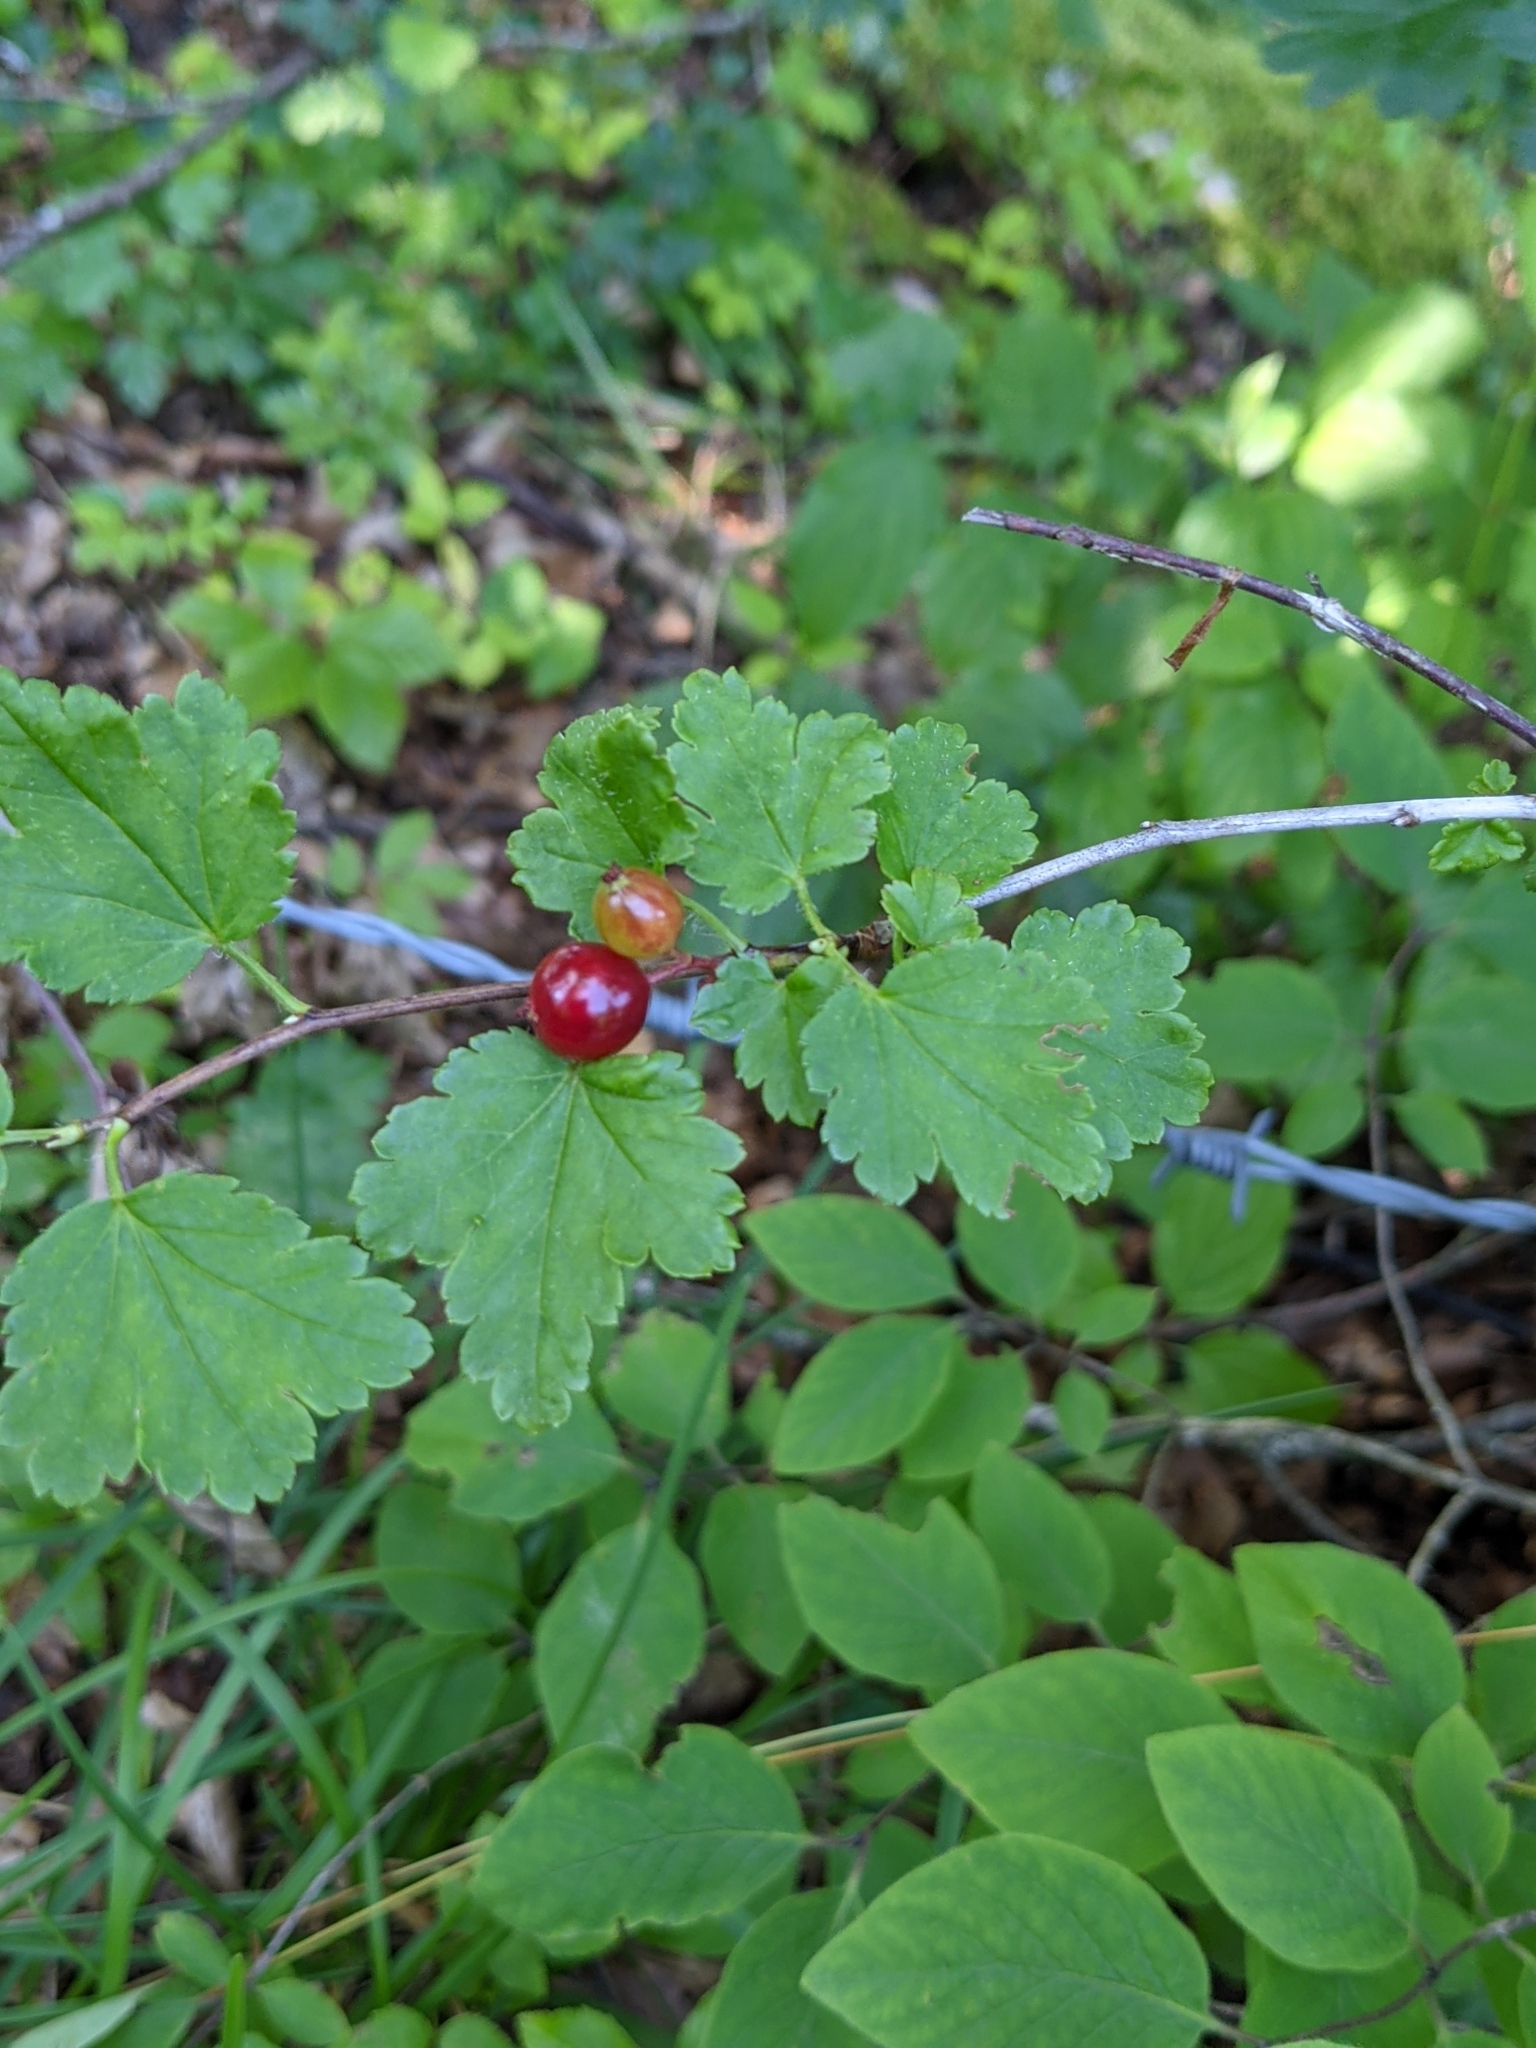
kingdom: Plantae
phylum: Tracheophyta
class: Magnoliopsida
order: Saxifragales
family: Grossulariaceae
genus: Ribes
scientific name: Ribes alpinum
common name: Alpine currant
